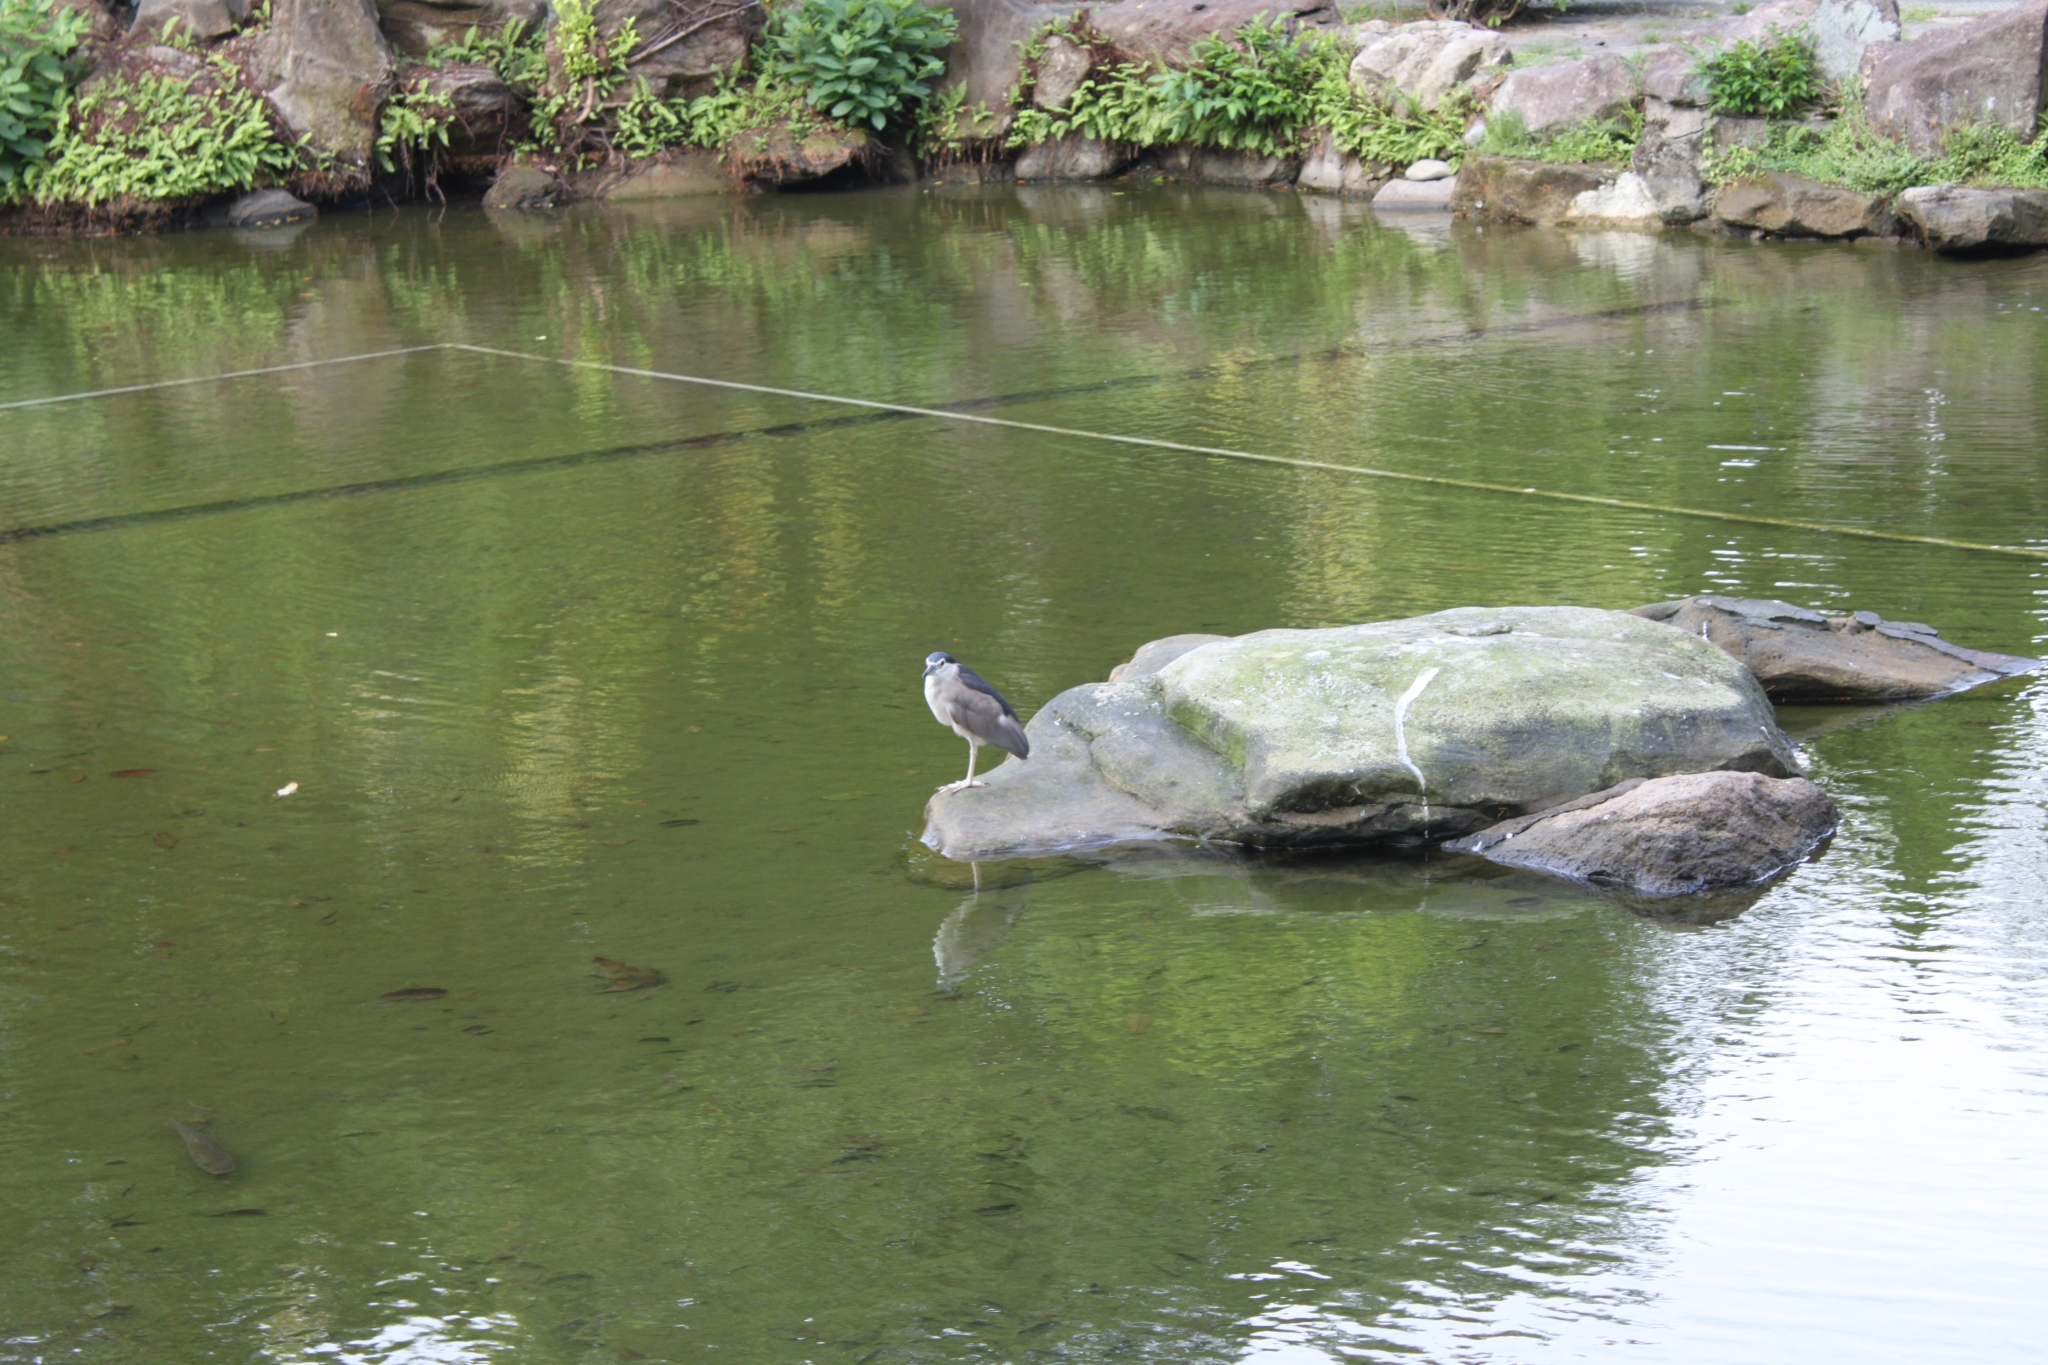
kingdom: Animalia
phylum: Chordata
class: Aves
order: Pelecaniformes
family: Ardeidae
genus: Nycticorax
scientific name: Nycticorax nycticorax
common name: Black-crowned night heron
